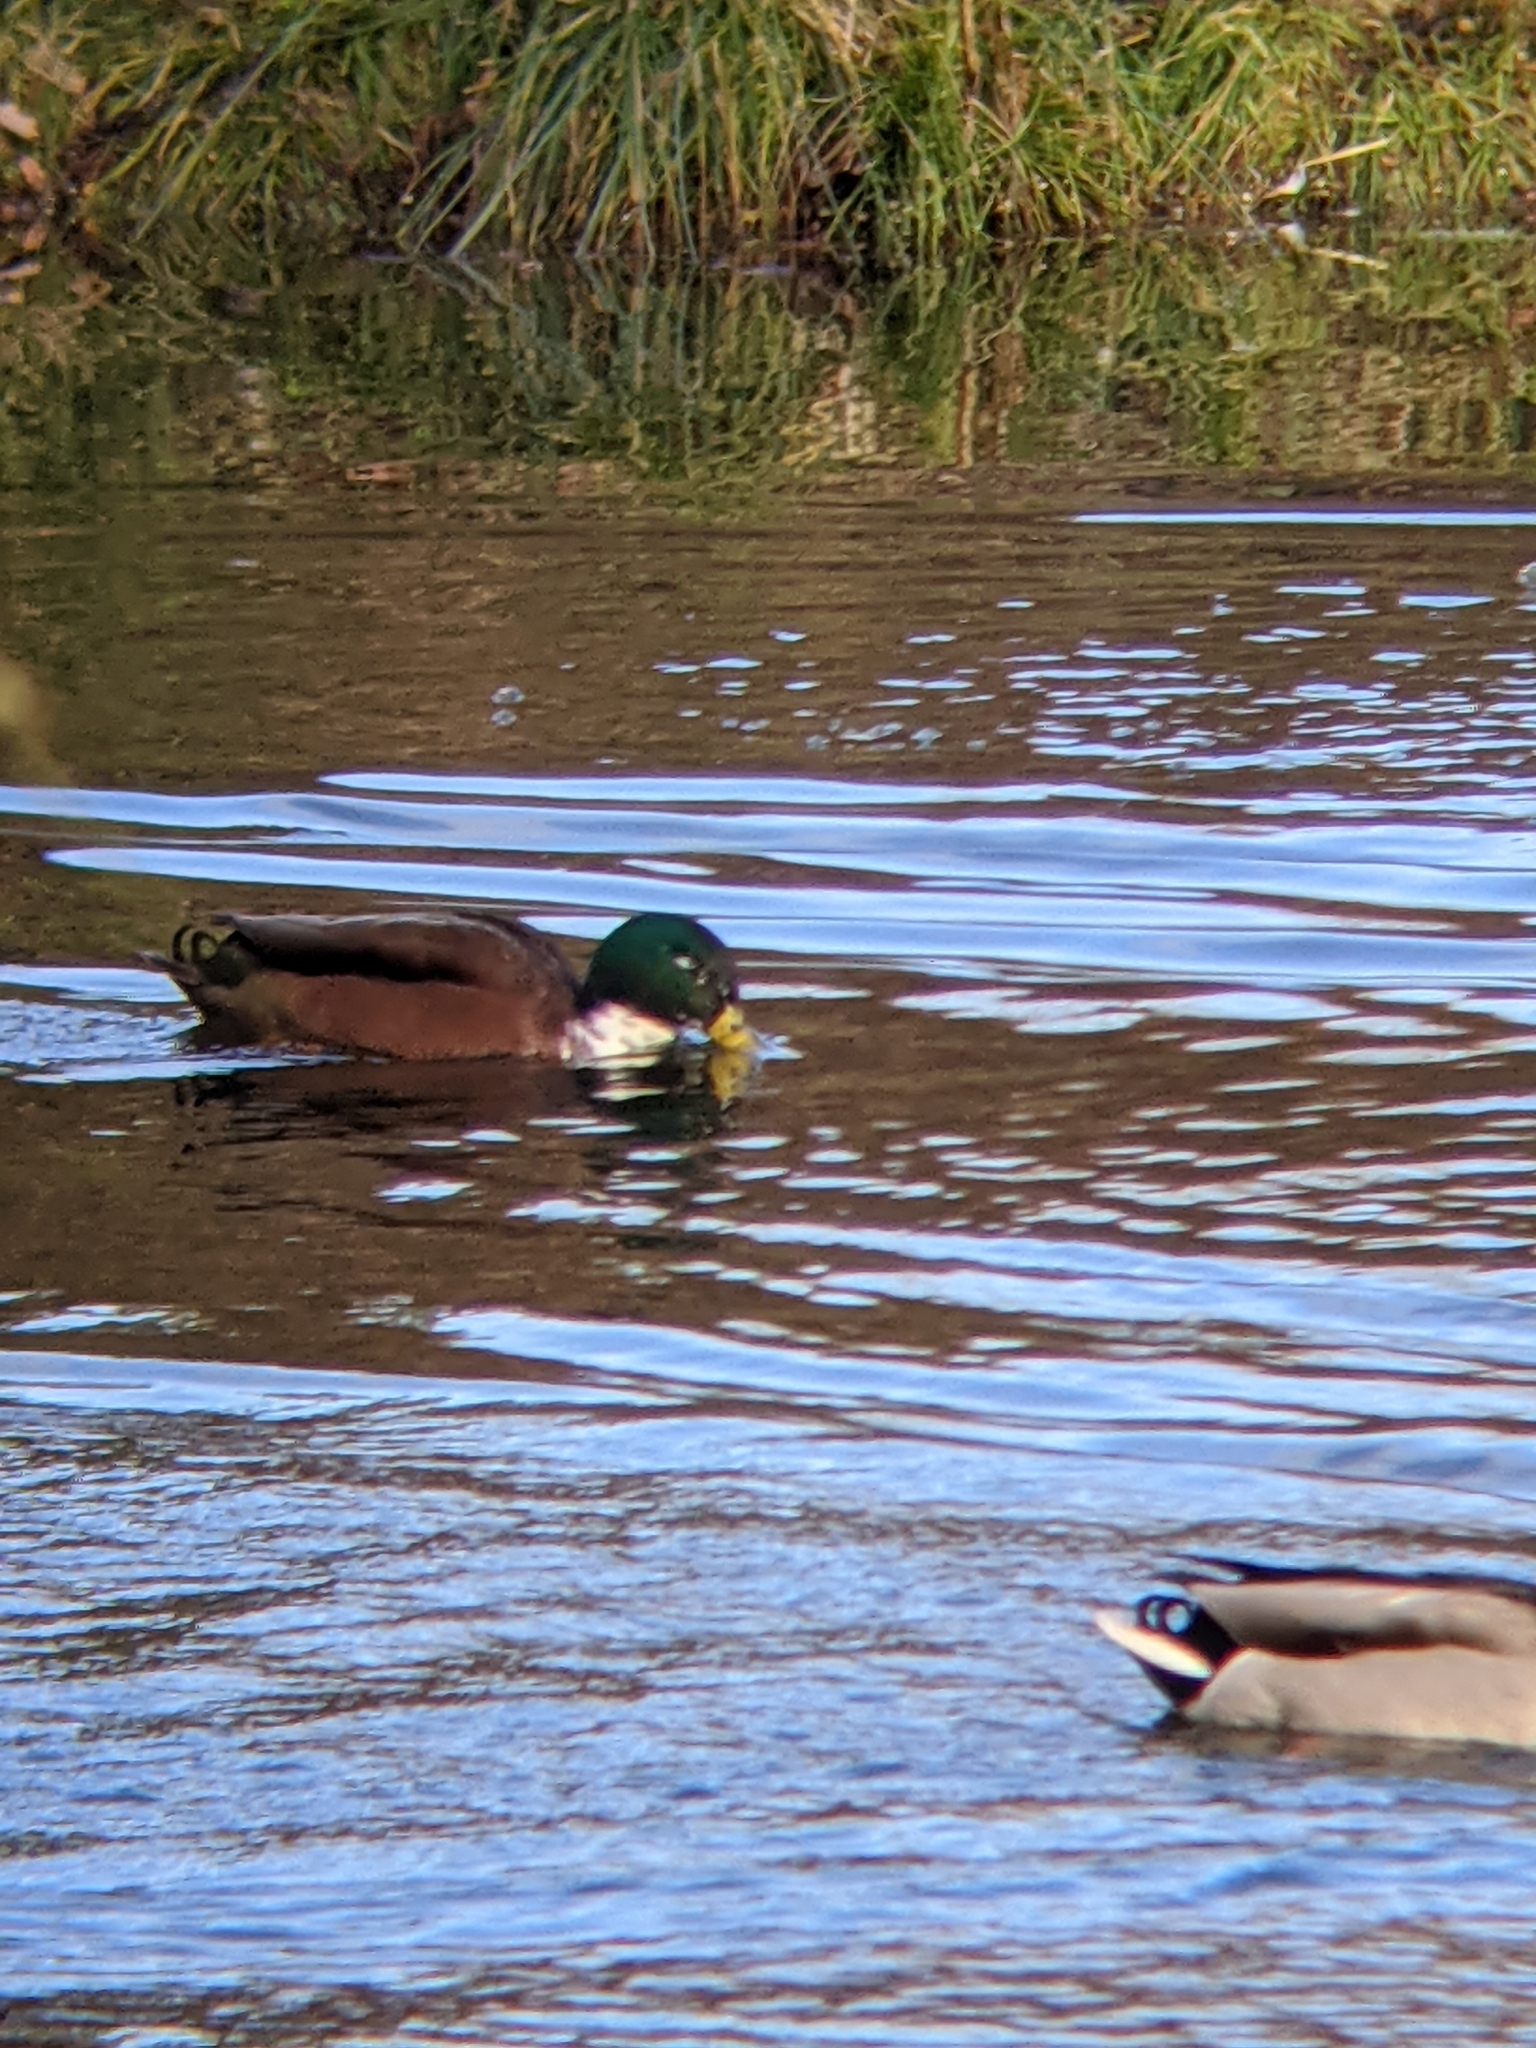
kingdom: Animalia
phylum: Chordata
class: Aves
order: Anseriformes
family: Anatidae
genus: Anas
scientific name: Anas platyrhynchos
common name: Mallard
